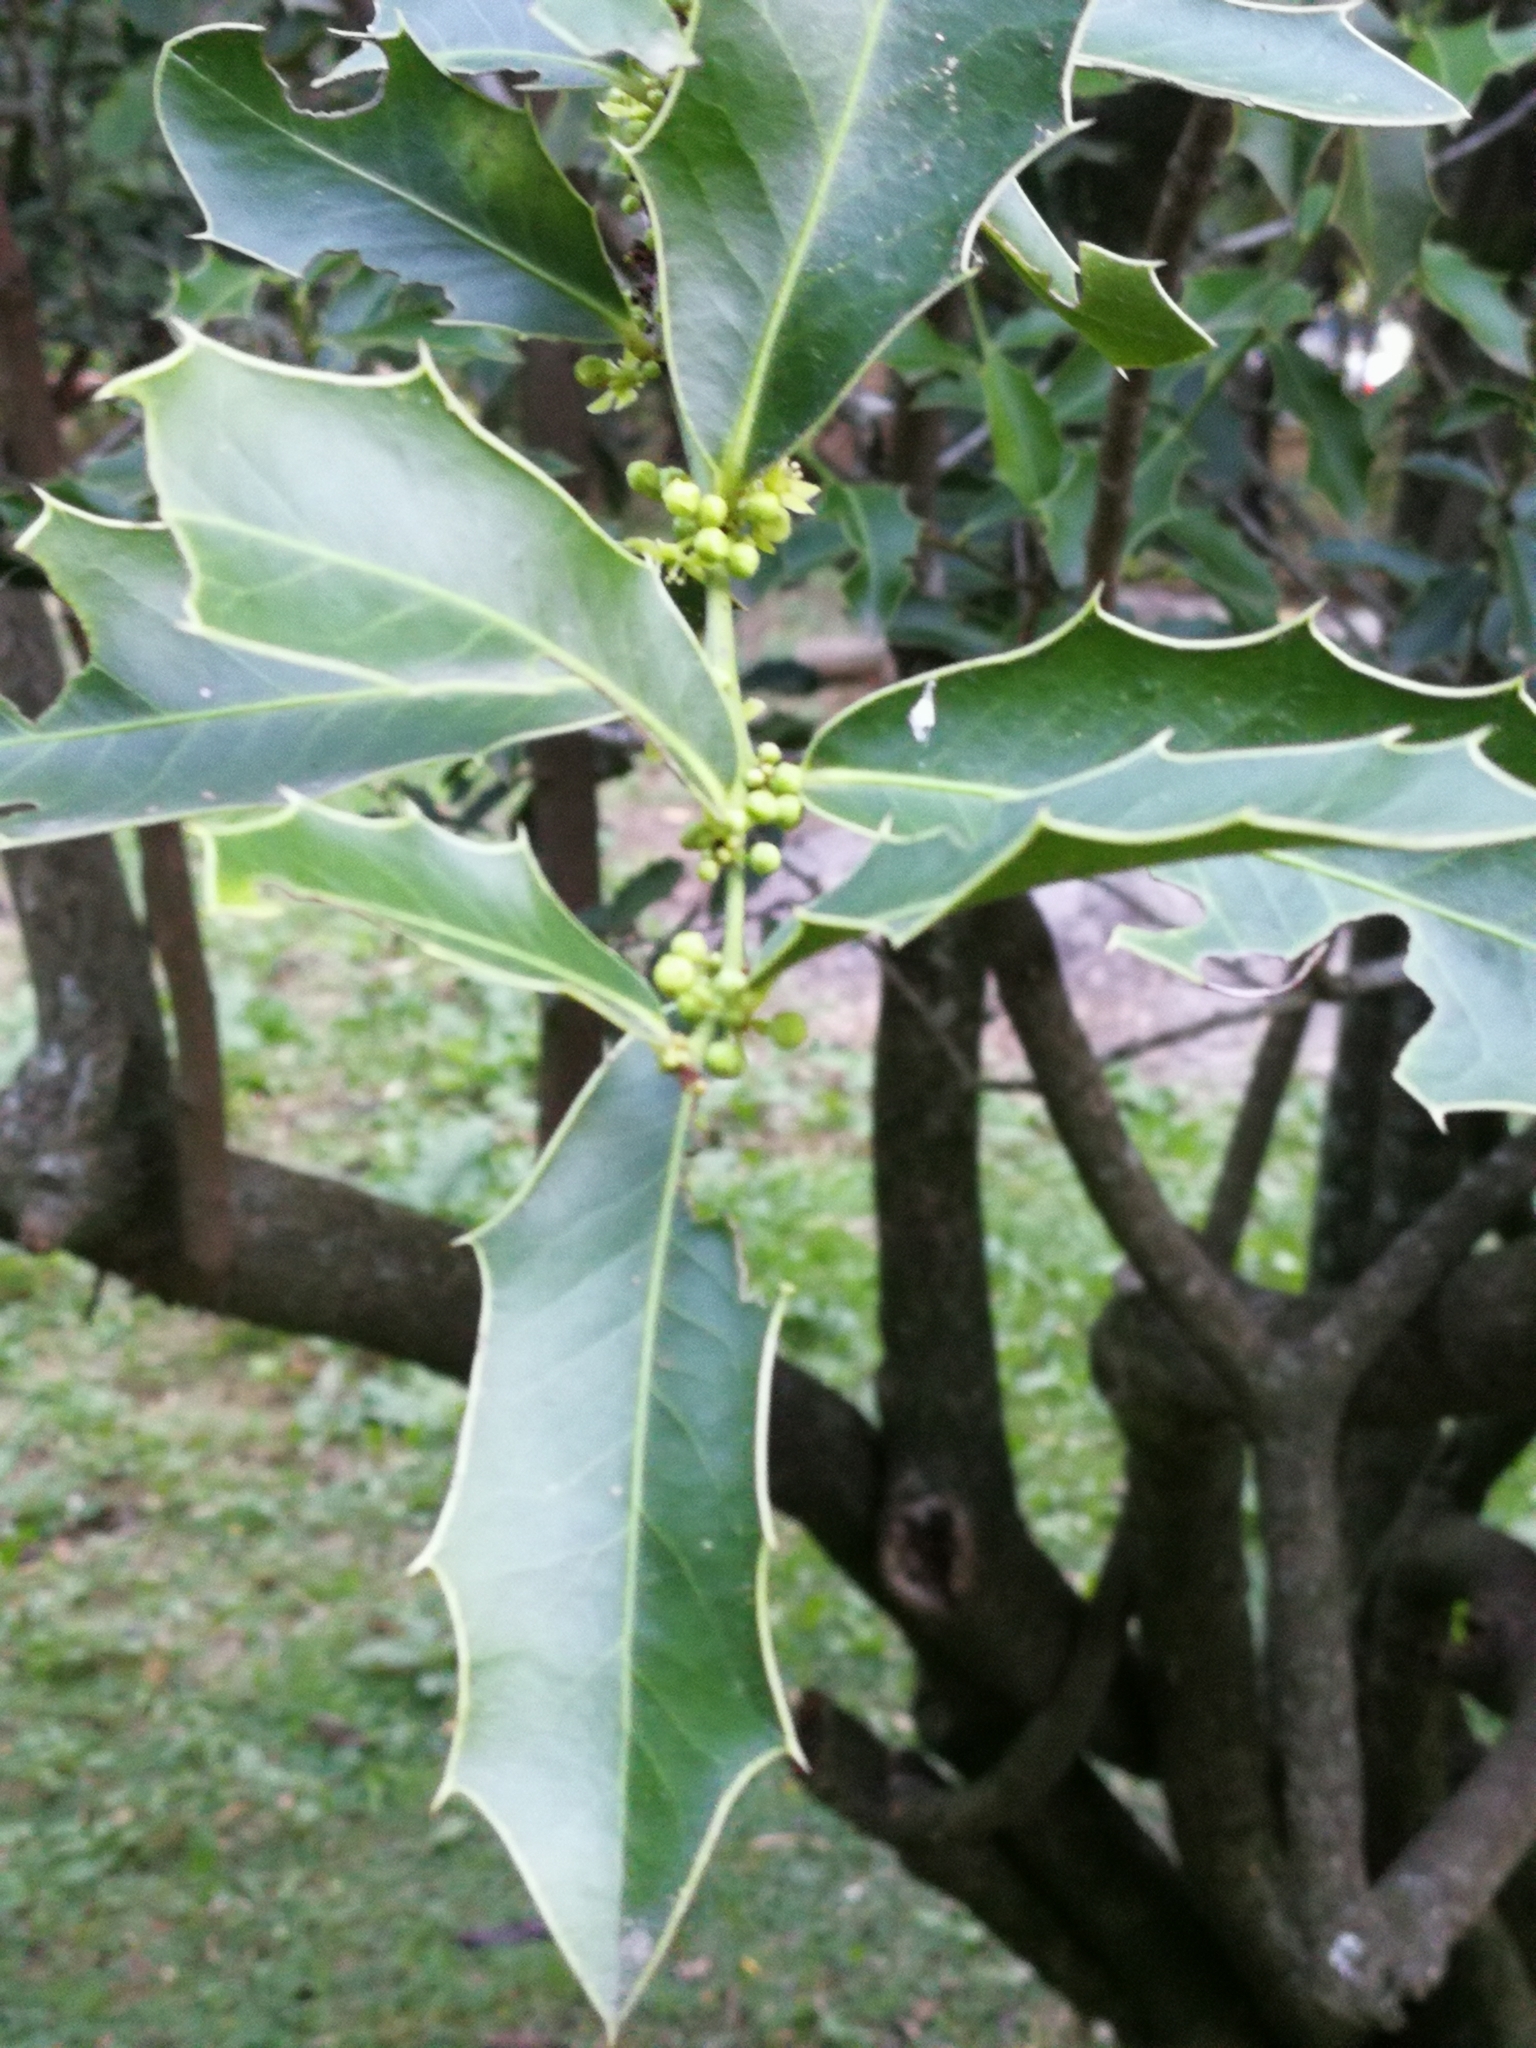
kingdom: Plantae
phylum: Tracheophyta
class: Magnoliopsida
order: Celastrales
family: Celastraceae
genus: Monteverdia
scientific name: Monteverdia
